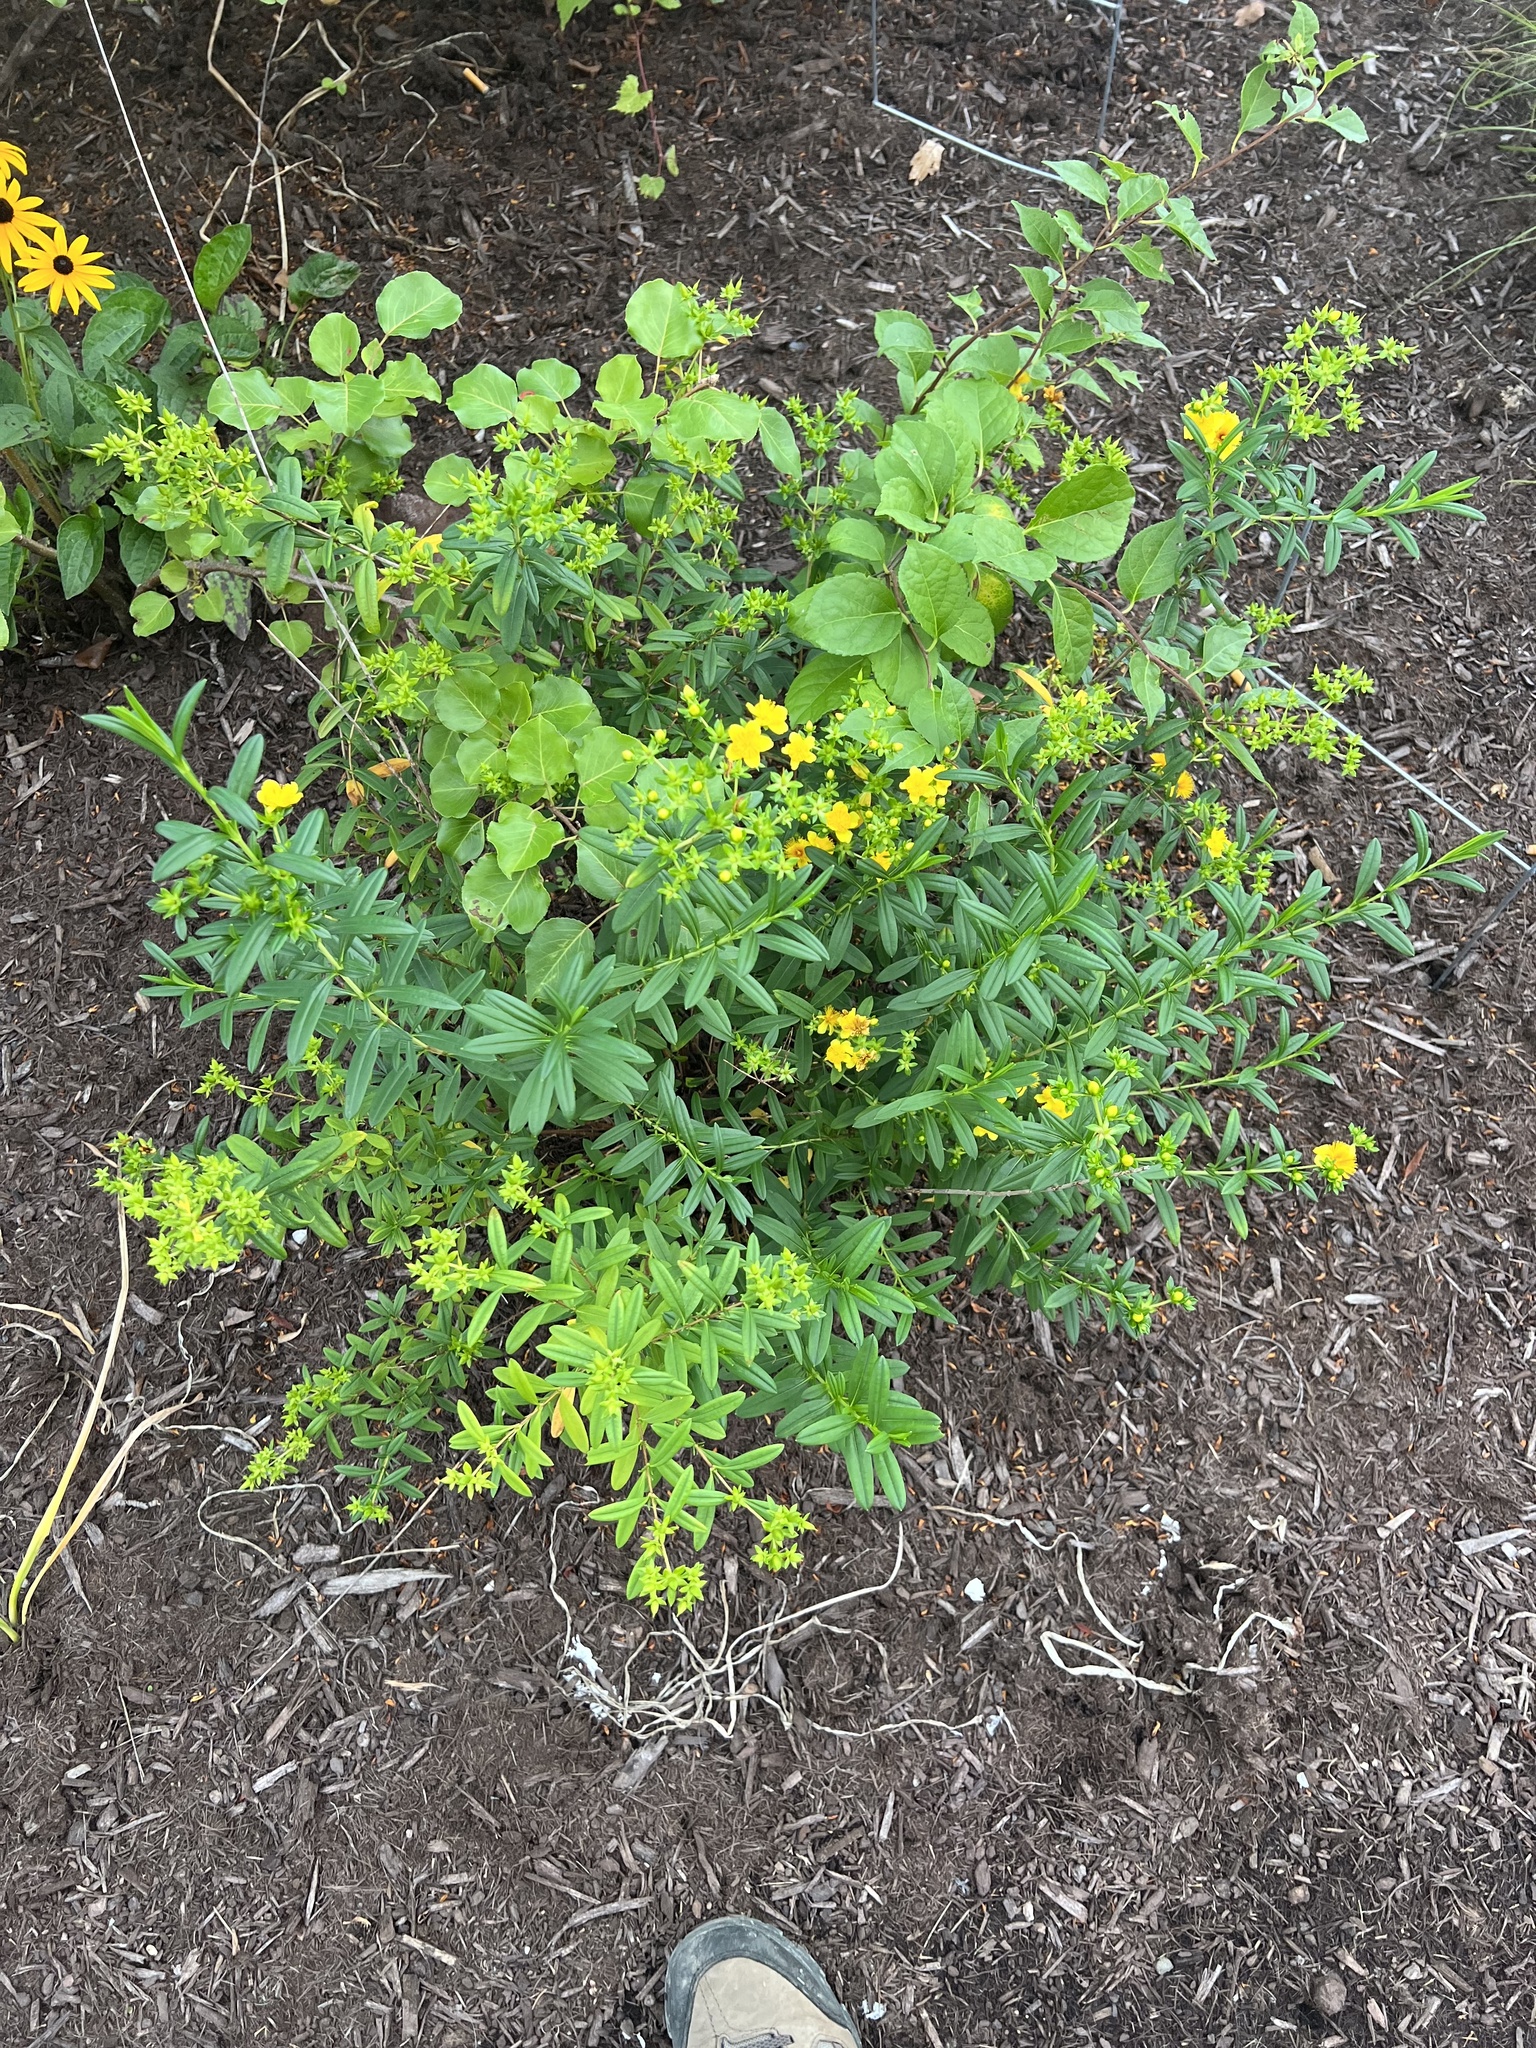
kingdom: Plantae
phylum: Tracheophyta
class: Magnoliopsida
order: Malpighiales
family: Hypericaceae
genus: Hypericum
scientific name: Hypericum prolificum
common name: Shrubby st. john's-wort
